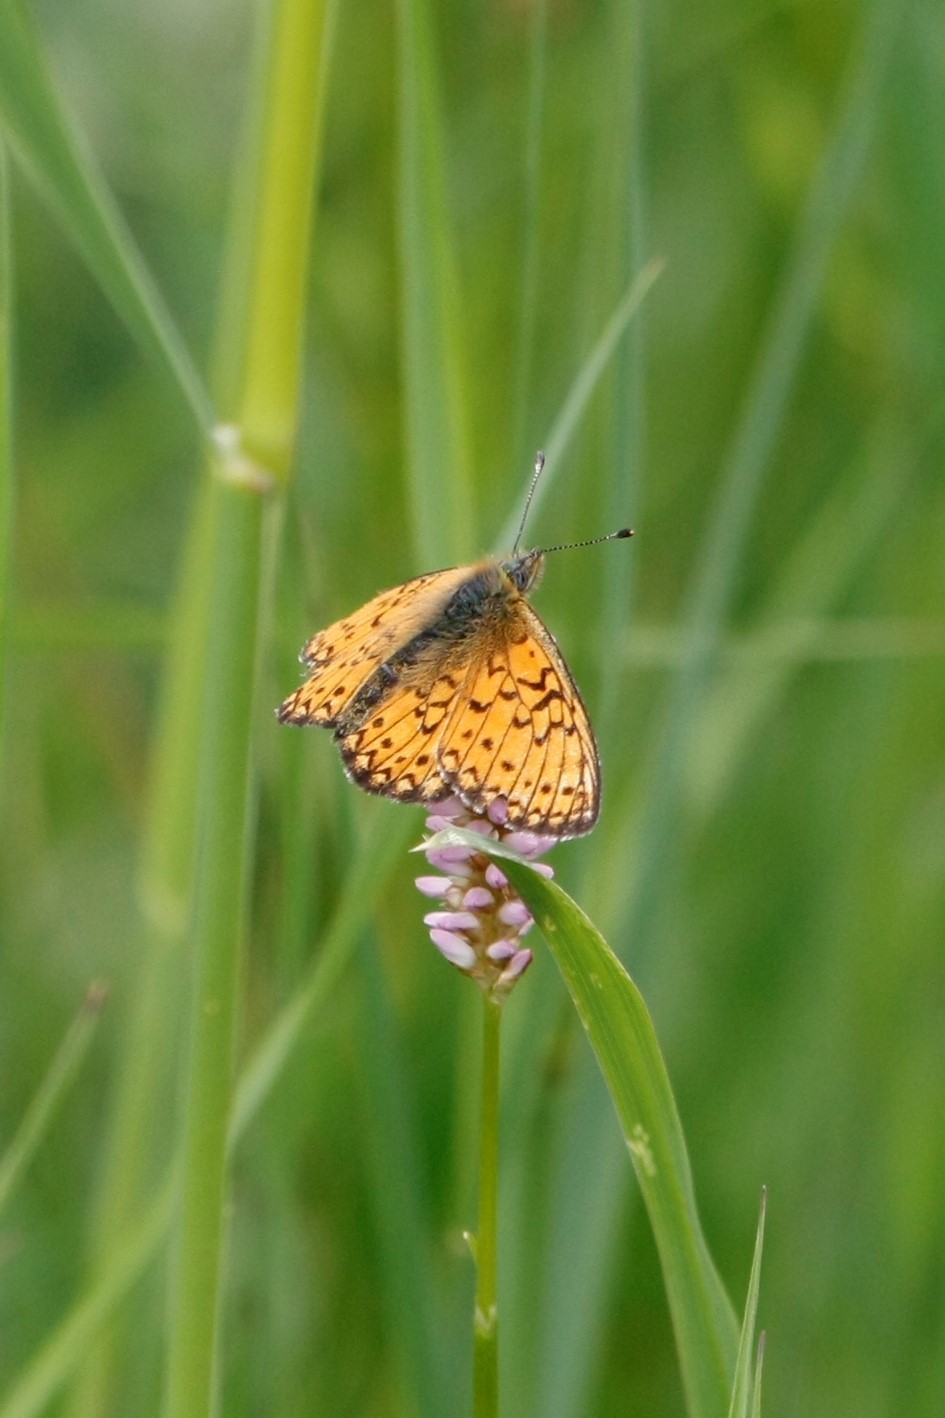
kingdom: Animalia
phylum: Arthropoda
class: Insecta
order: Lepidoptera
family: Nymphalidae
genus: Boloria
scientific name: Boloria eunomia
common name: Bog fritillary
